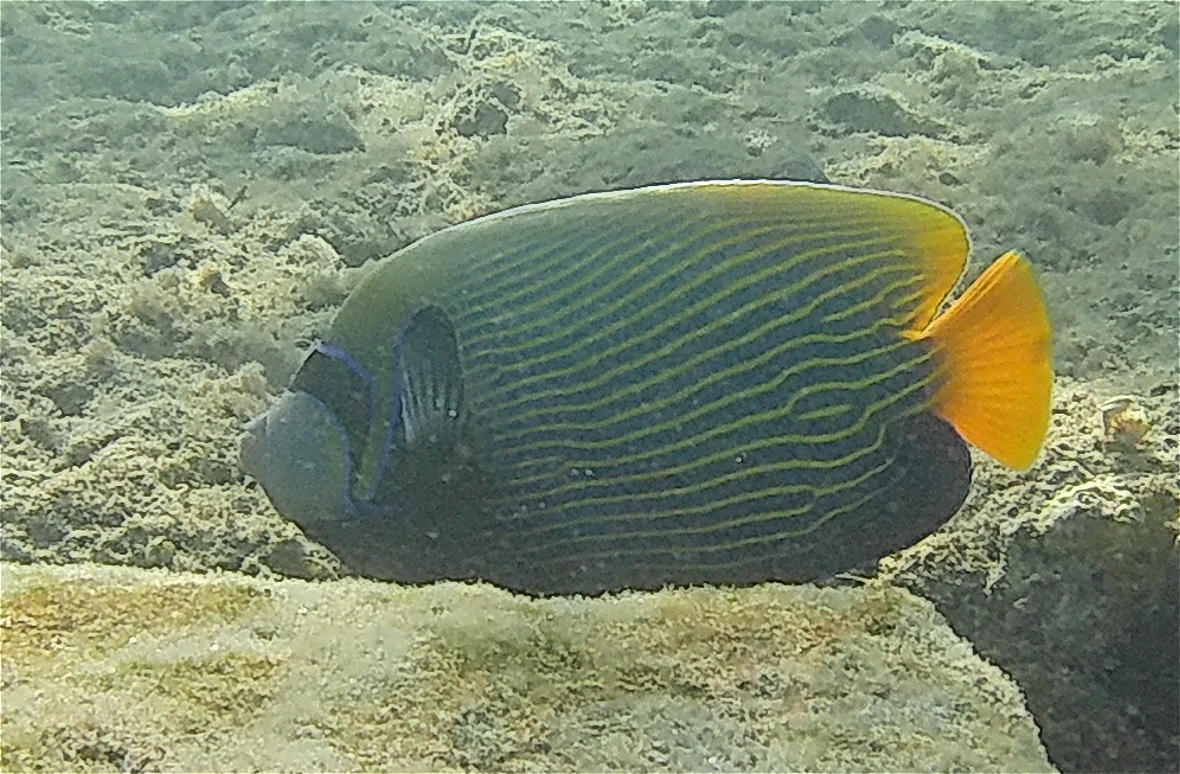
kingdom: Animalia
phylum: Chordata
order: Perciformes
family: Pomacanthidae
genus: Pomacanthus
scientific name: Pomacanthus imperator
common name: Emperor angelfish
